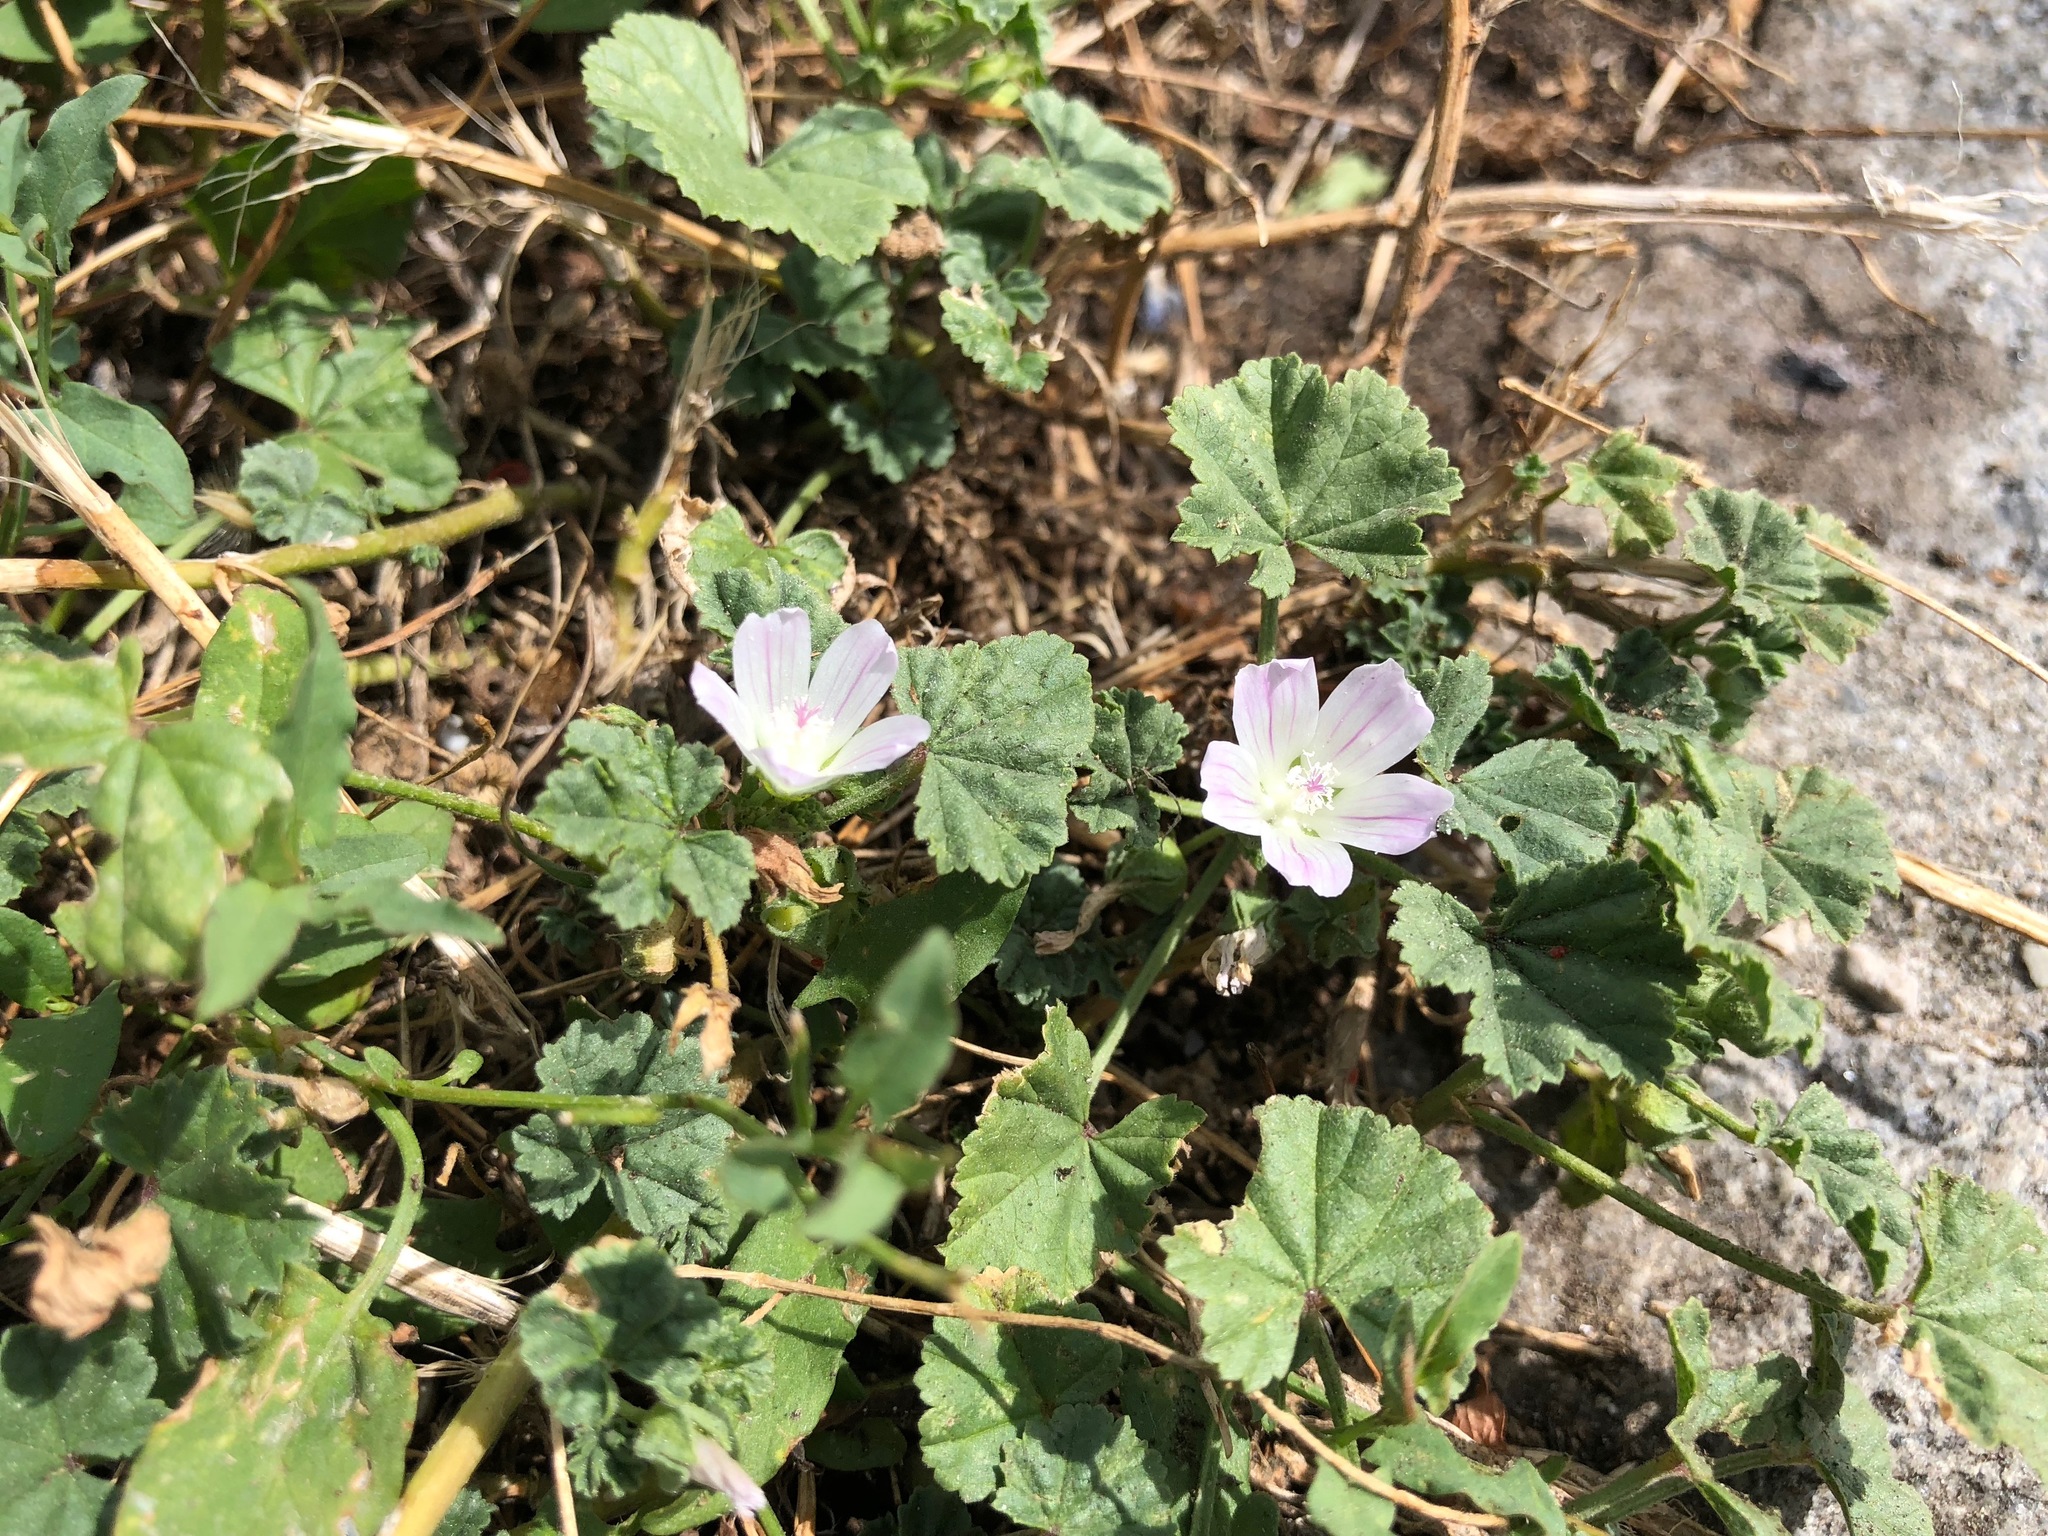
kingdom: Plantae
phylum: Tracheophyta
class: Magnoliopsida
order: Malvales
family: Malvaceae
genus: Malva
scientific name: Malva neglecta
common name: Common mallow
